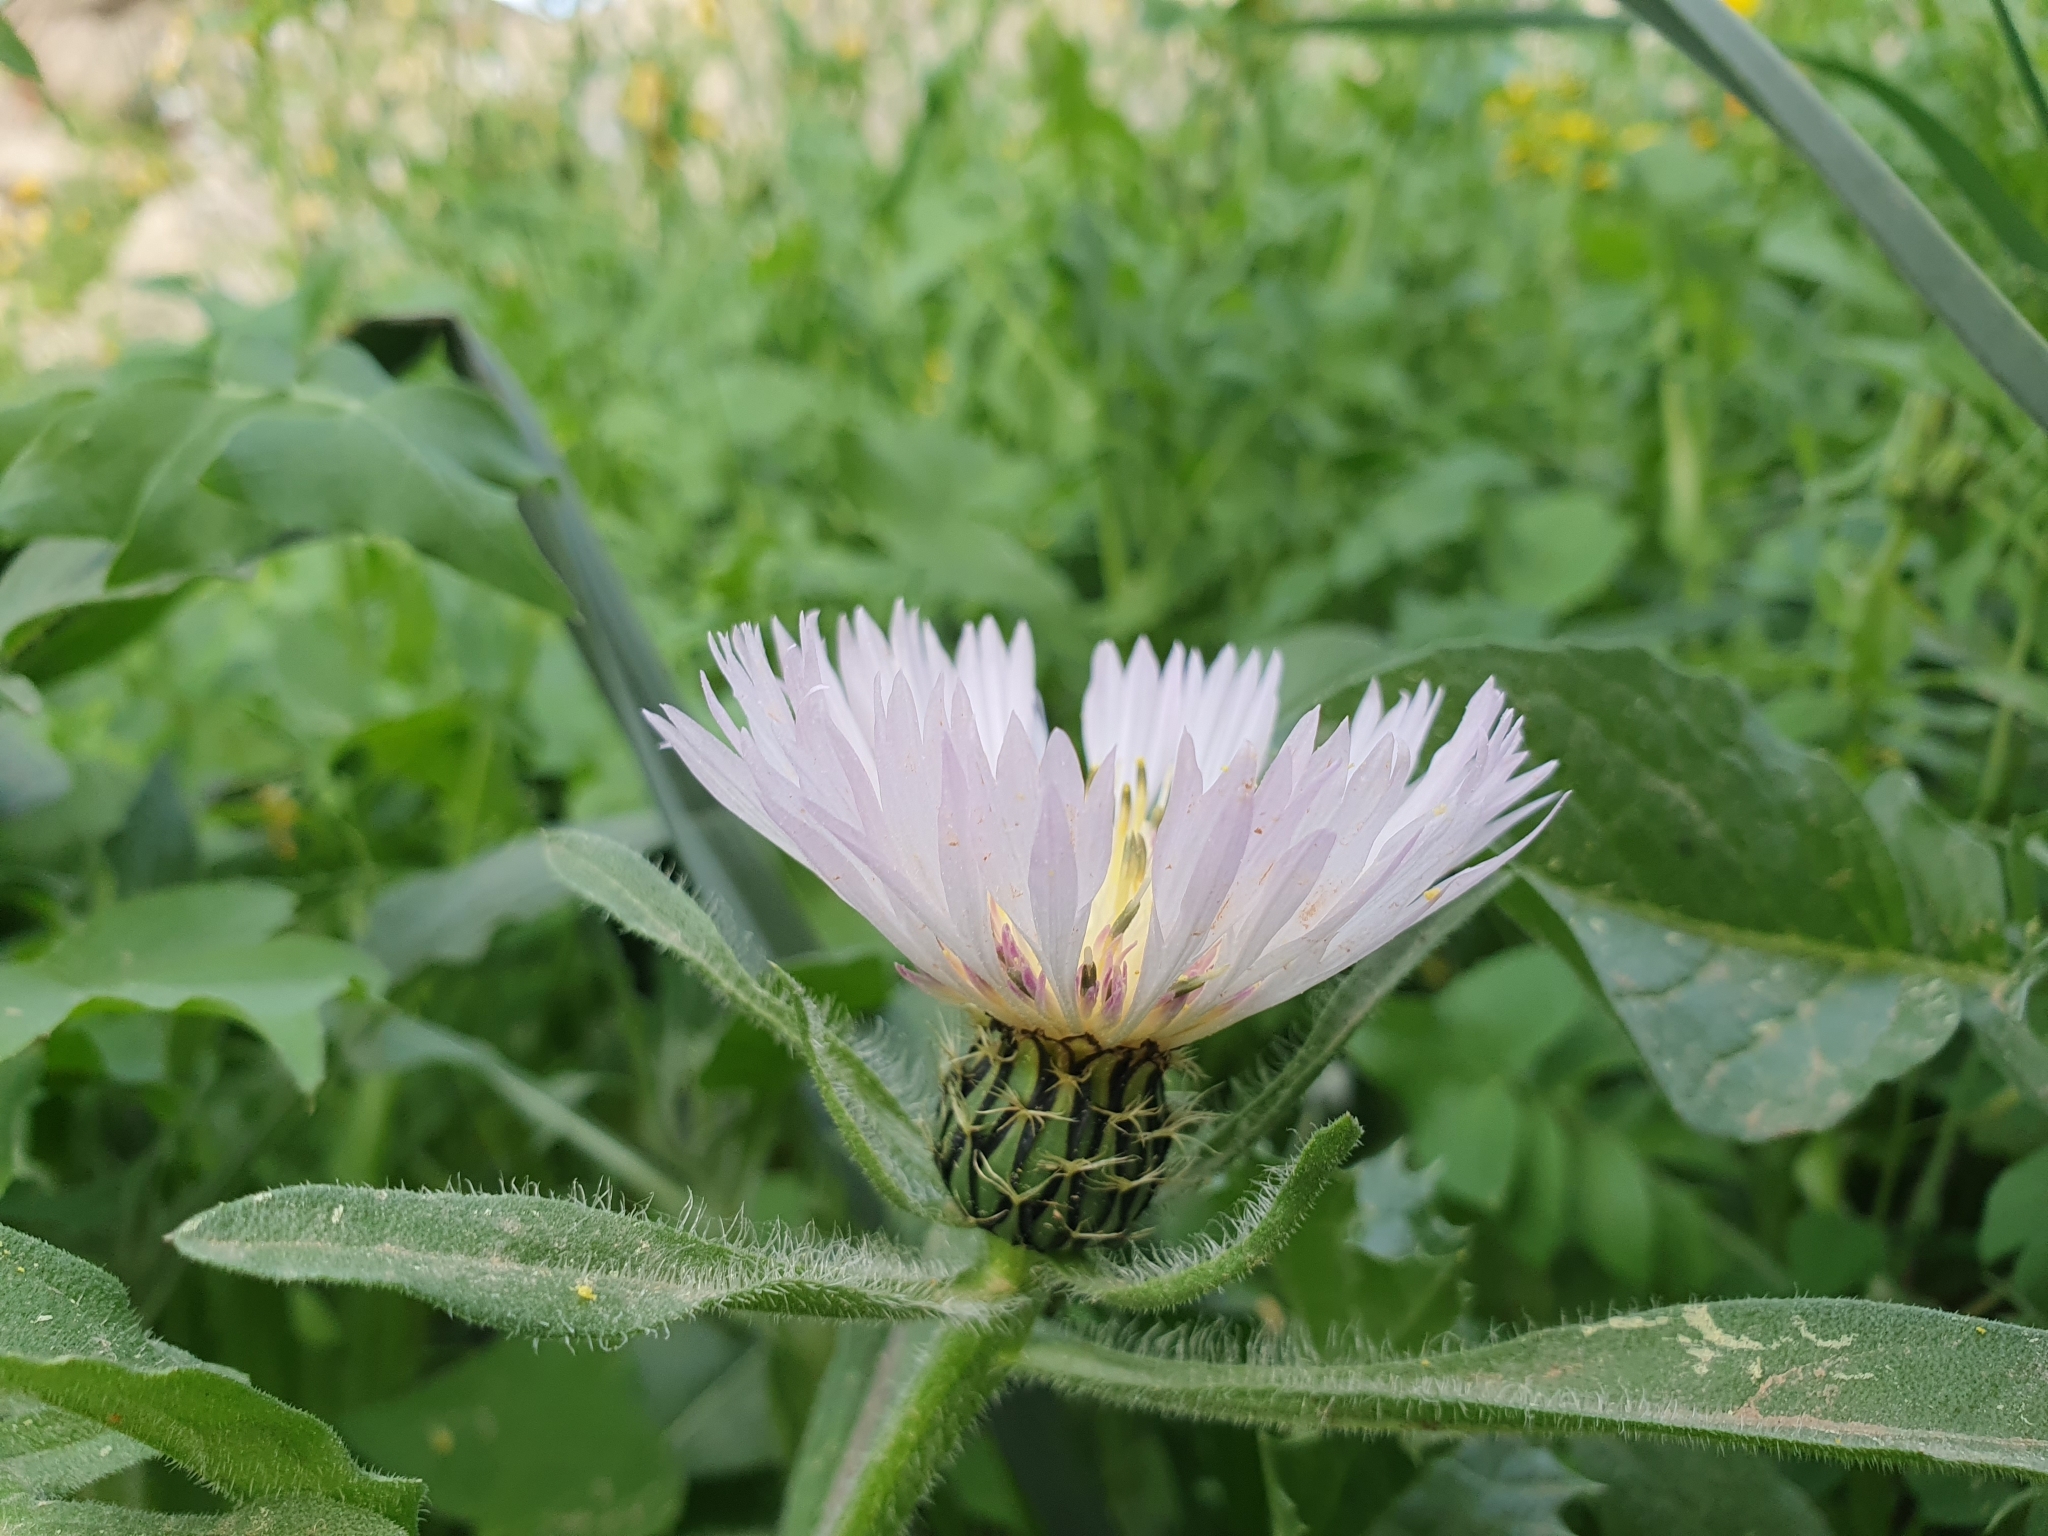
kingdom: Plantae
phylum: Tracheophyta
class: Magnoliopsida
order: Asterales
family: Asteraceae
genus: Centaurea
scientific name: Centaurea pullata
